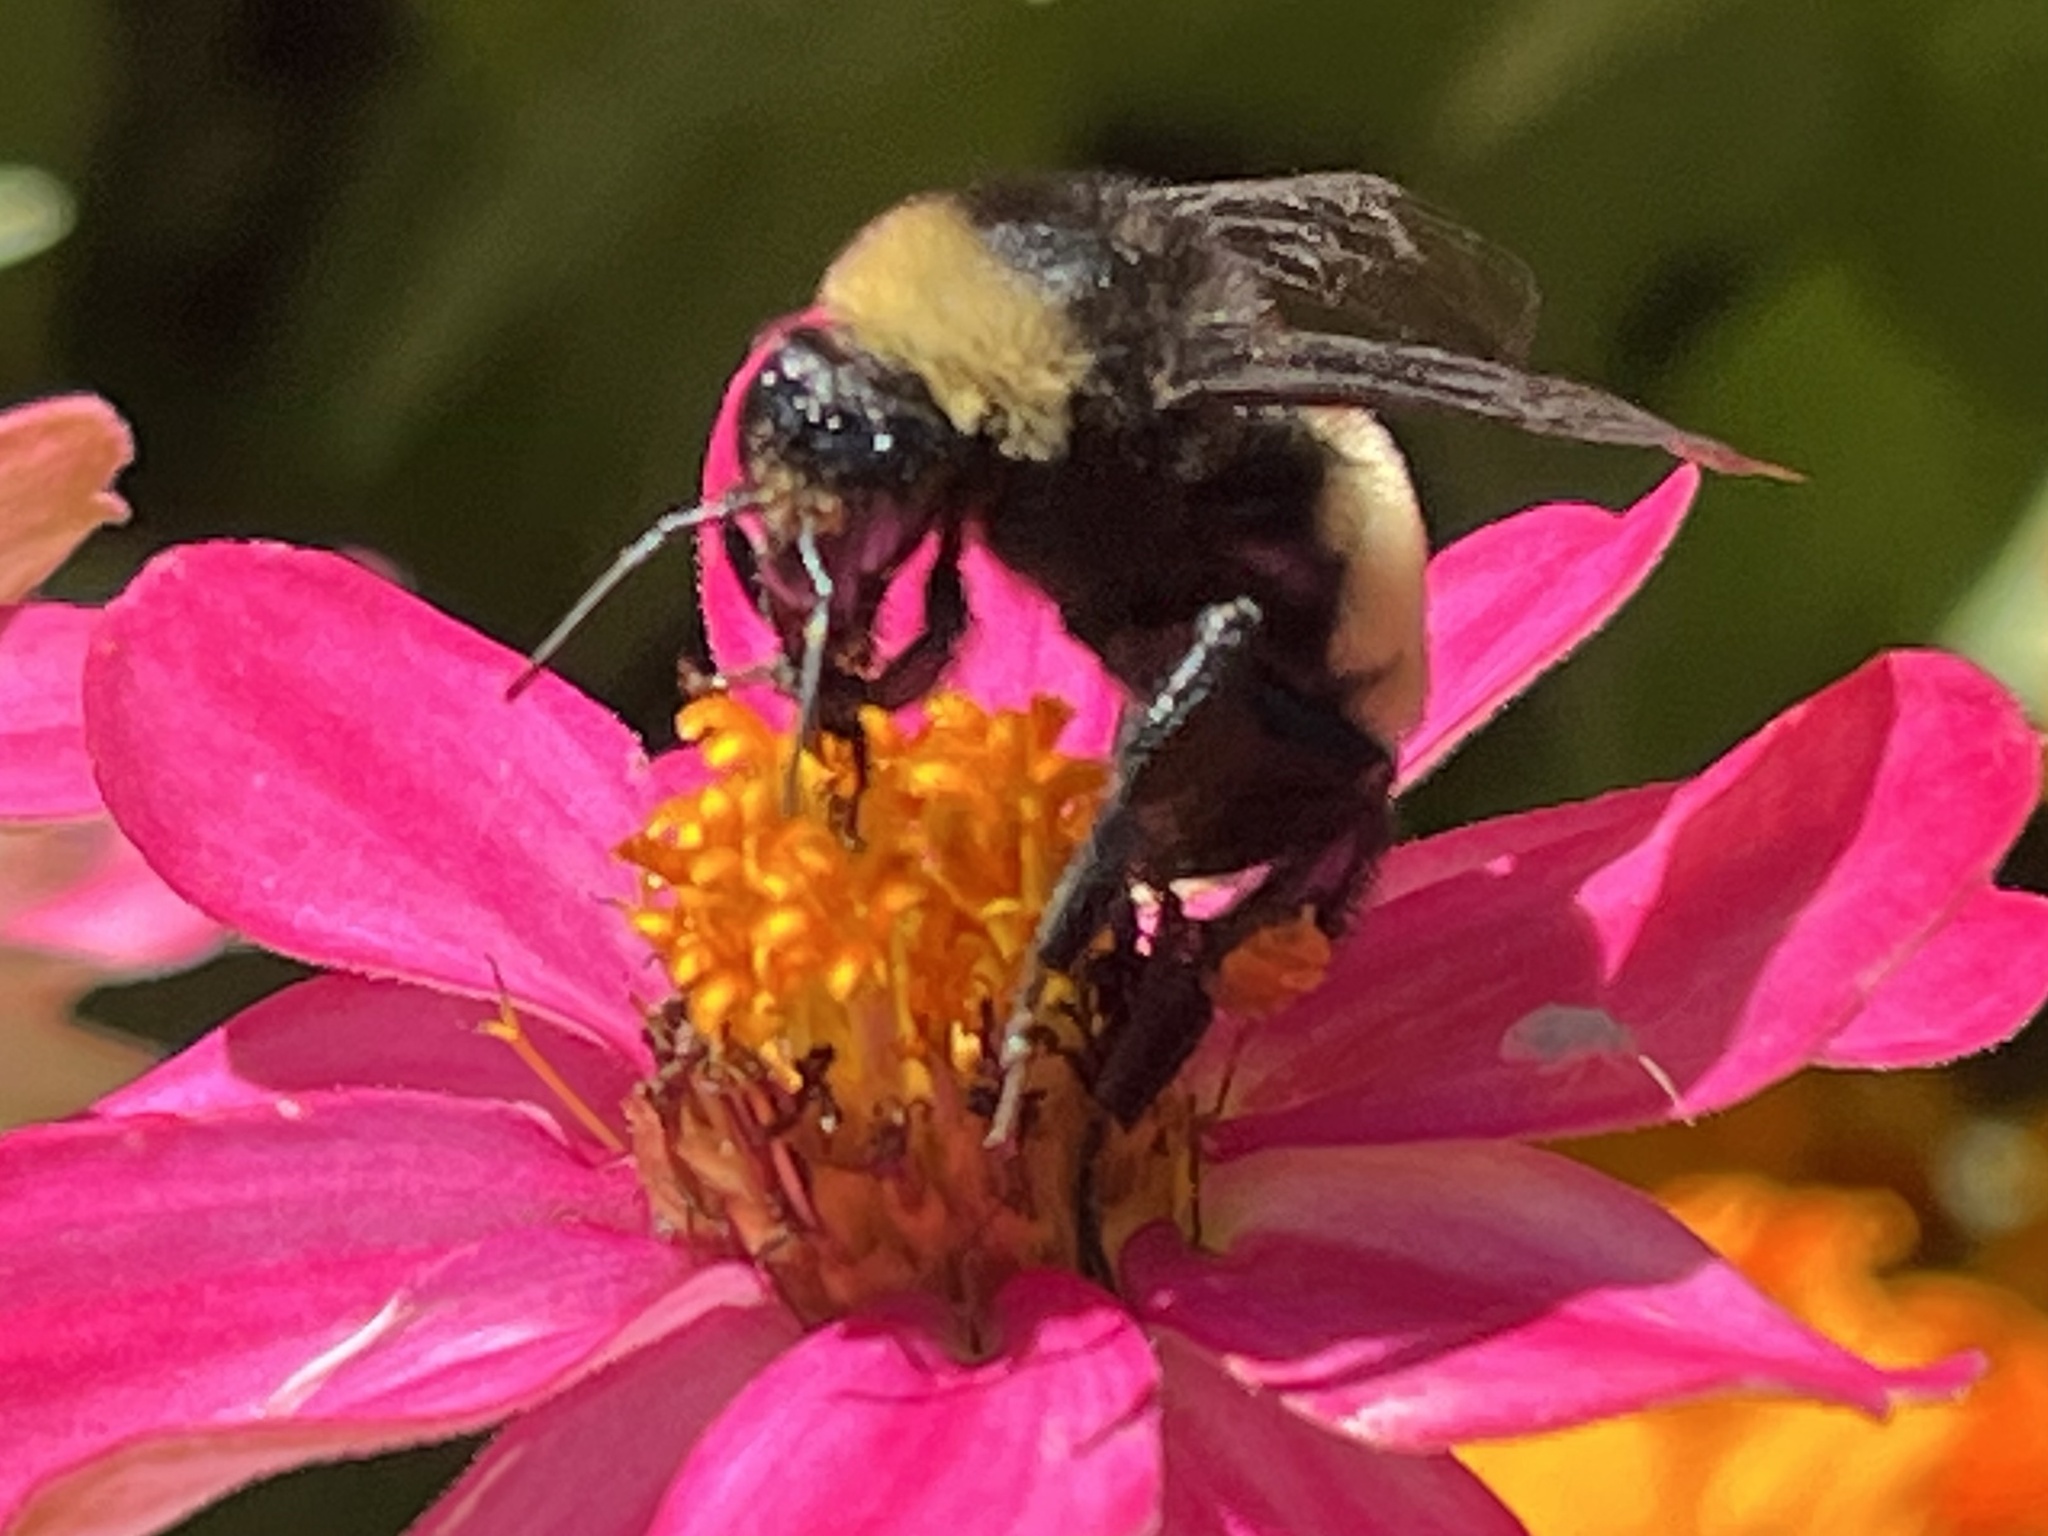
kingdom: Animalia
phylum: Arthropoda
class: Insecta
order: Hymenoptera
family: Apidae
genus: Bombus
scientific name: Bombus pensylvanicus
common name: Bumble bee
